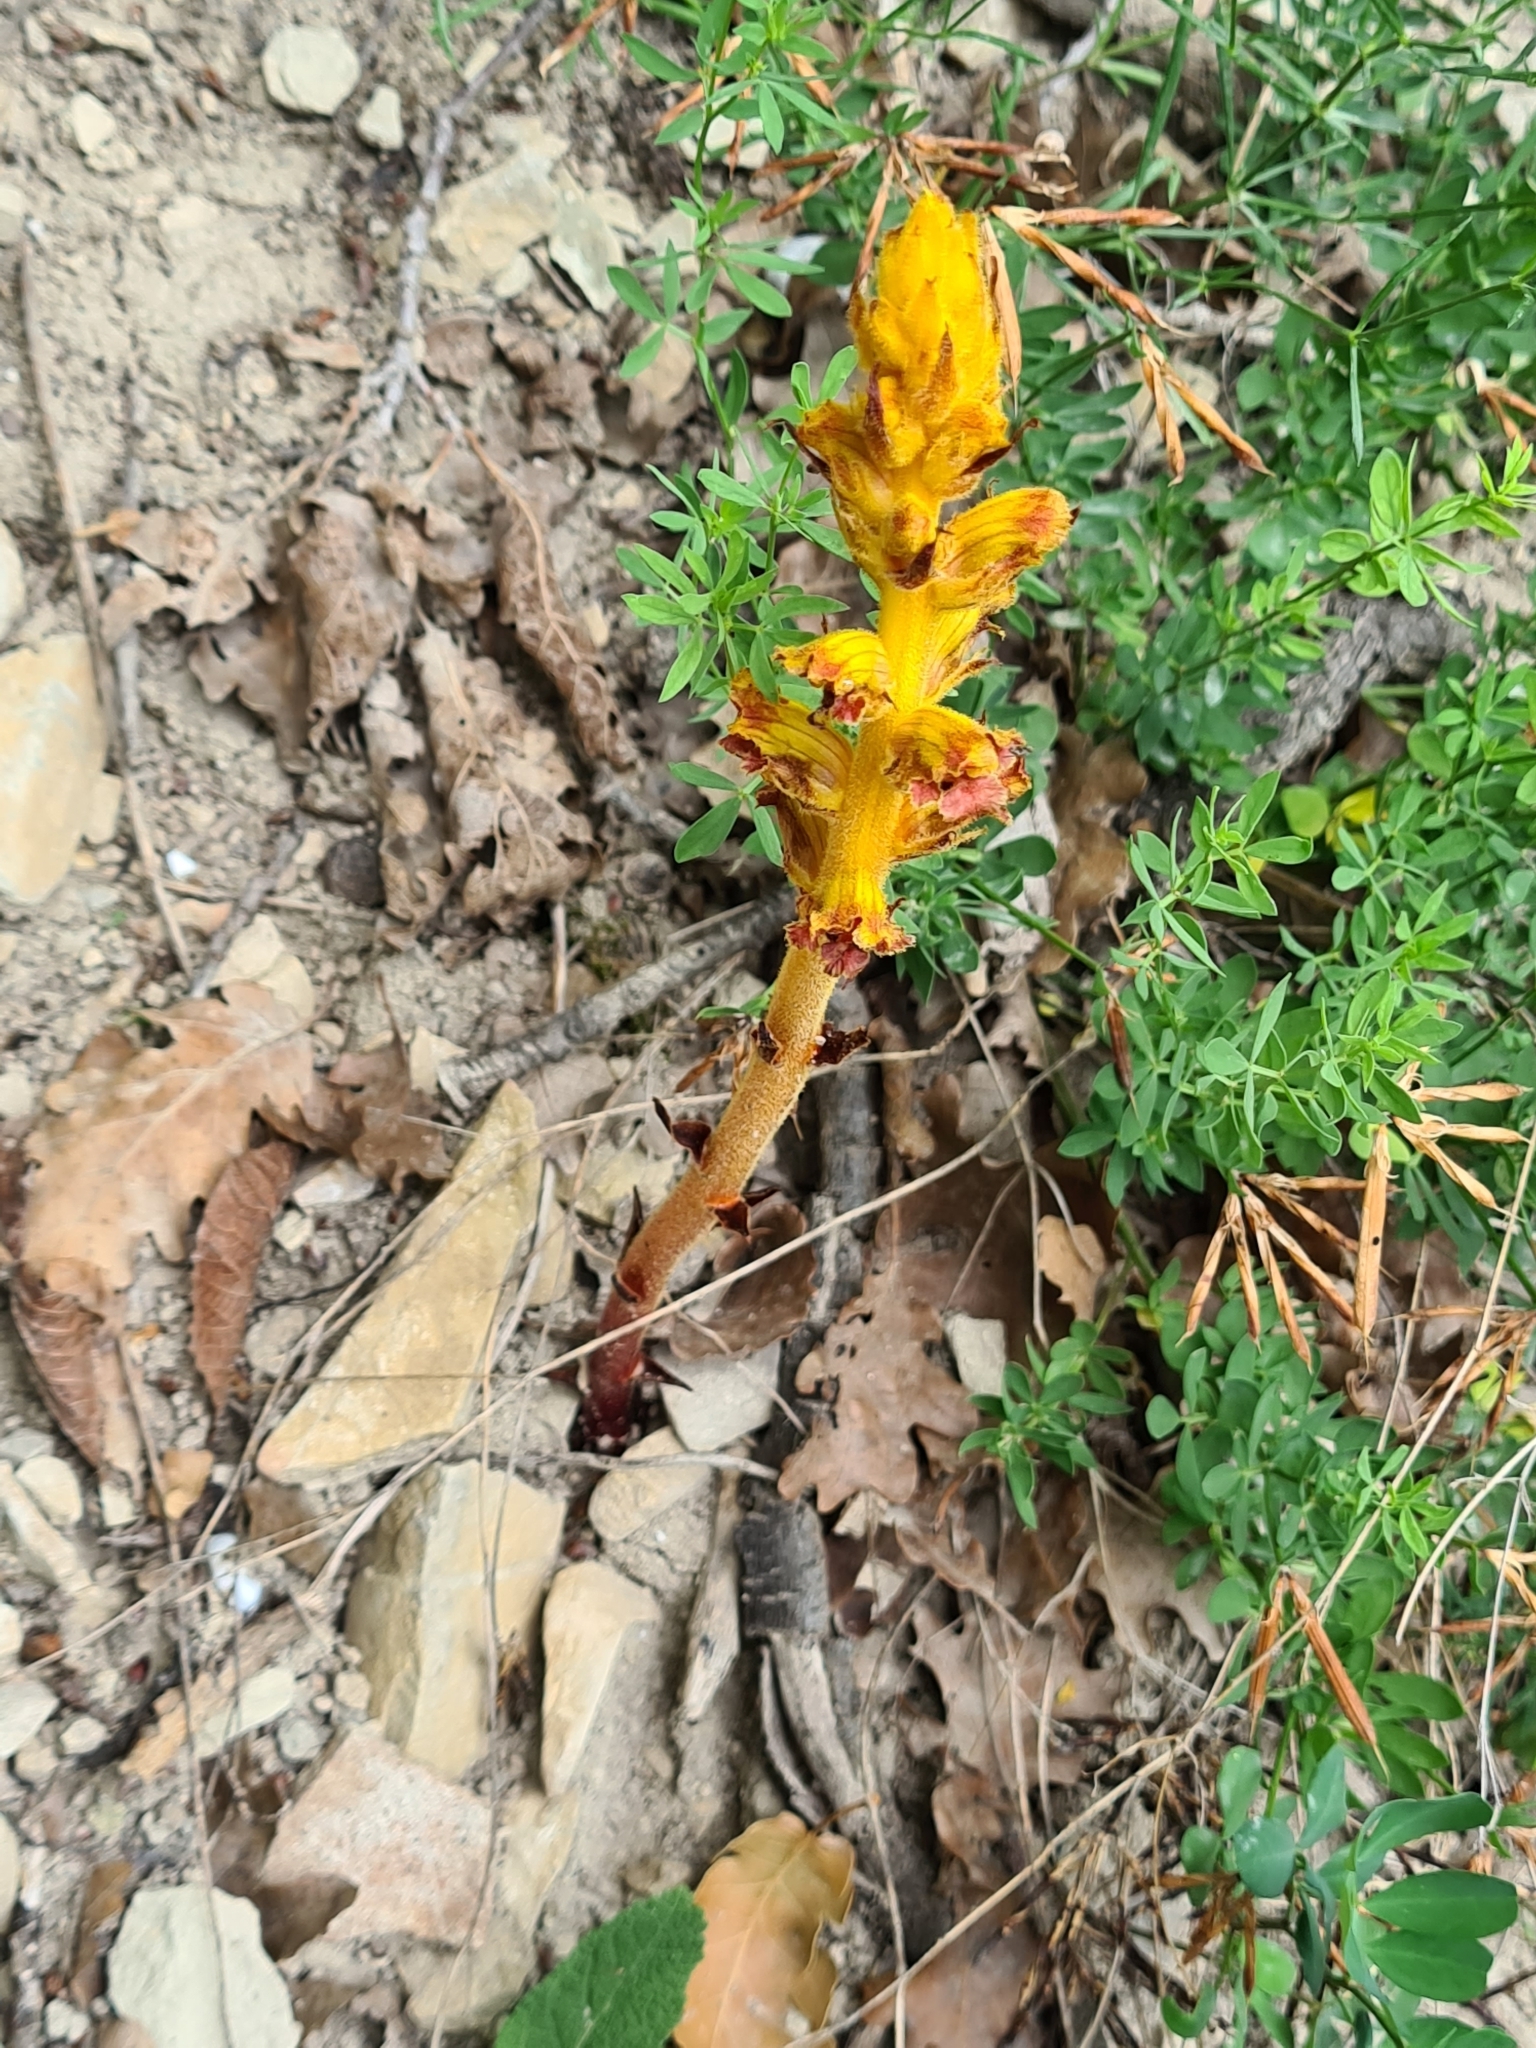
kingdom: Plantae
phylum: Tracheophyta
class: Magnoliopsida
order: Lamiales
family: Orobanchaceae
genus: Orobanche
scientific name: Orobanche gracilis
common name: Slender broomrape
